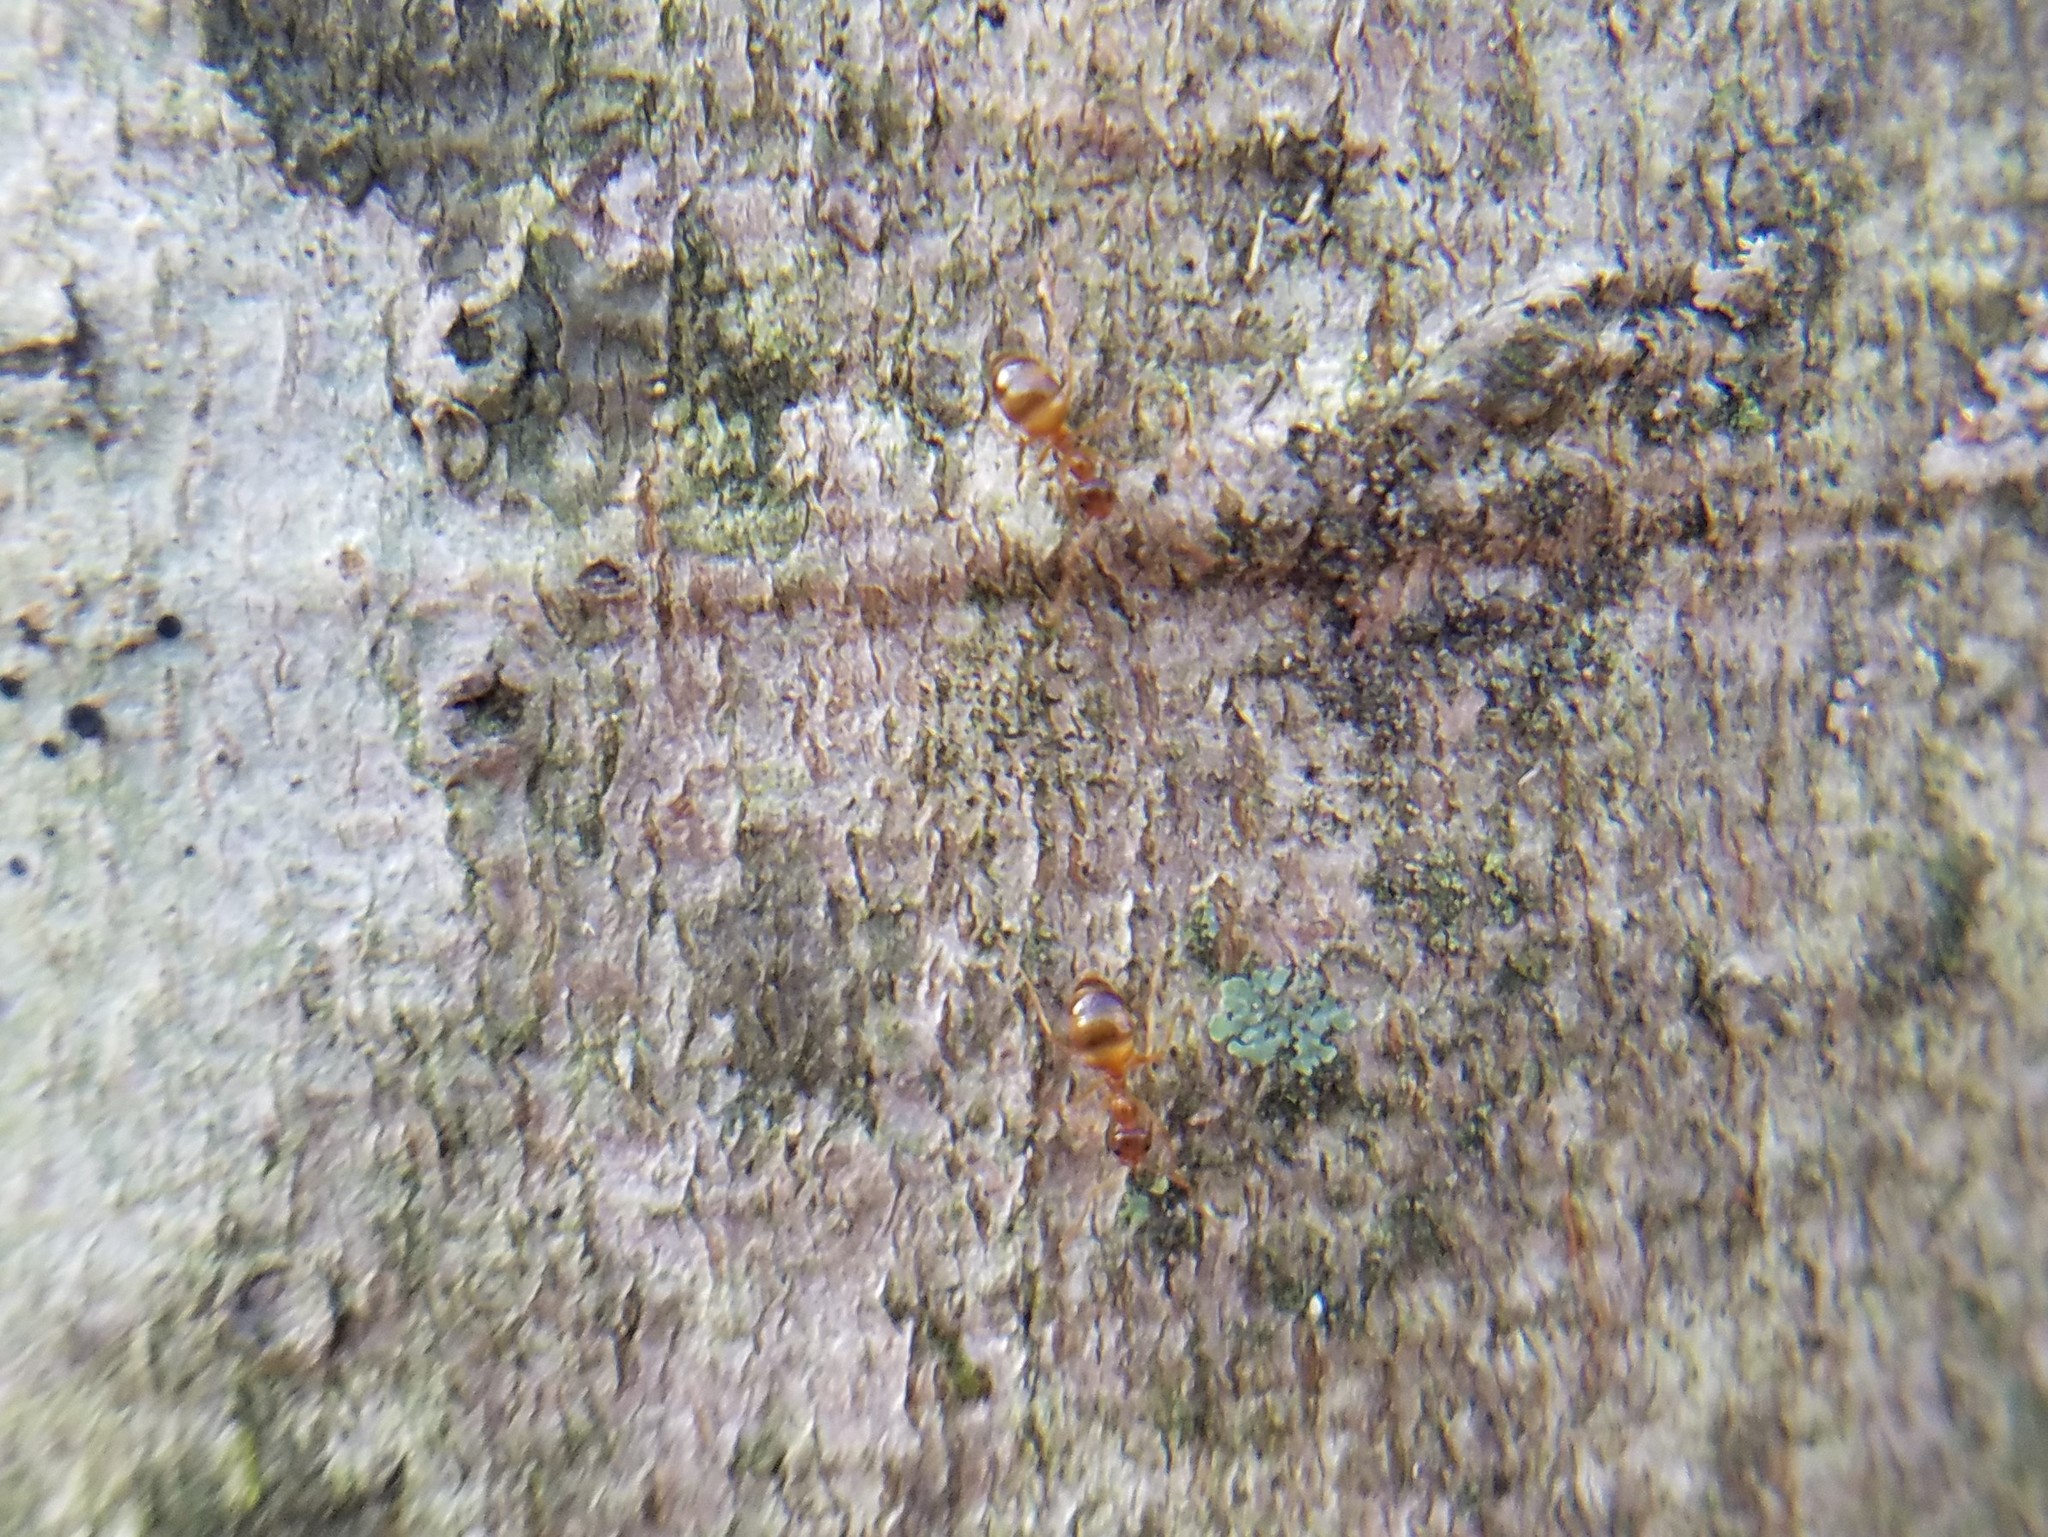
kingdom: Animalia
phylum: Arthropoda
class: Insecta
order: Hymenoptera
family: Formicidae
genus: Prenolepis
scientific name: Prenolepis imparis
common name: Small honey ant
